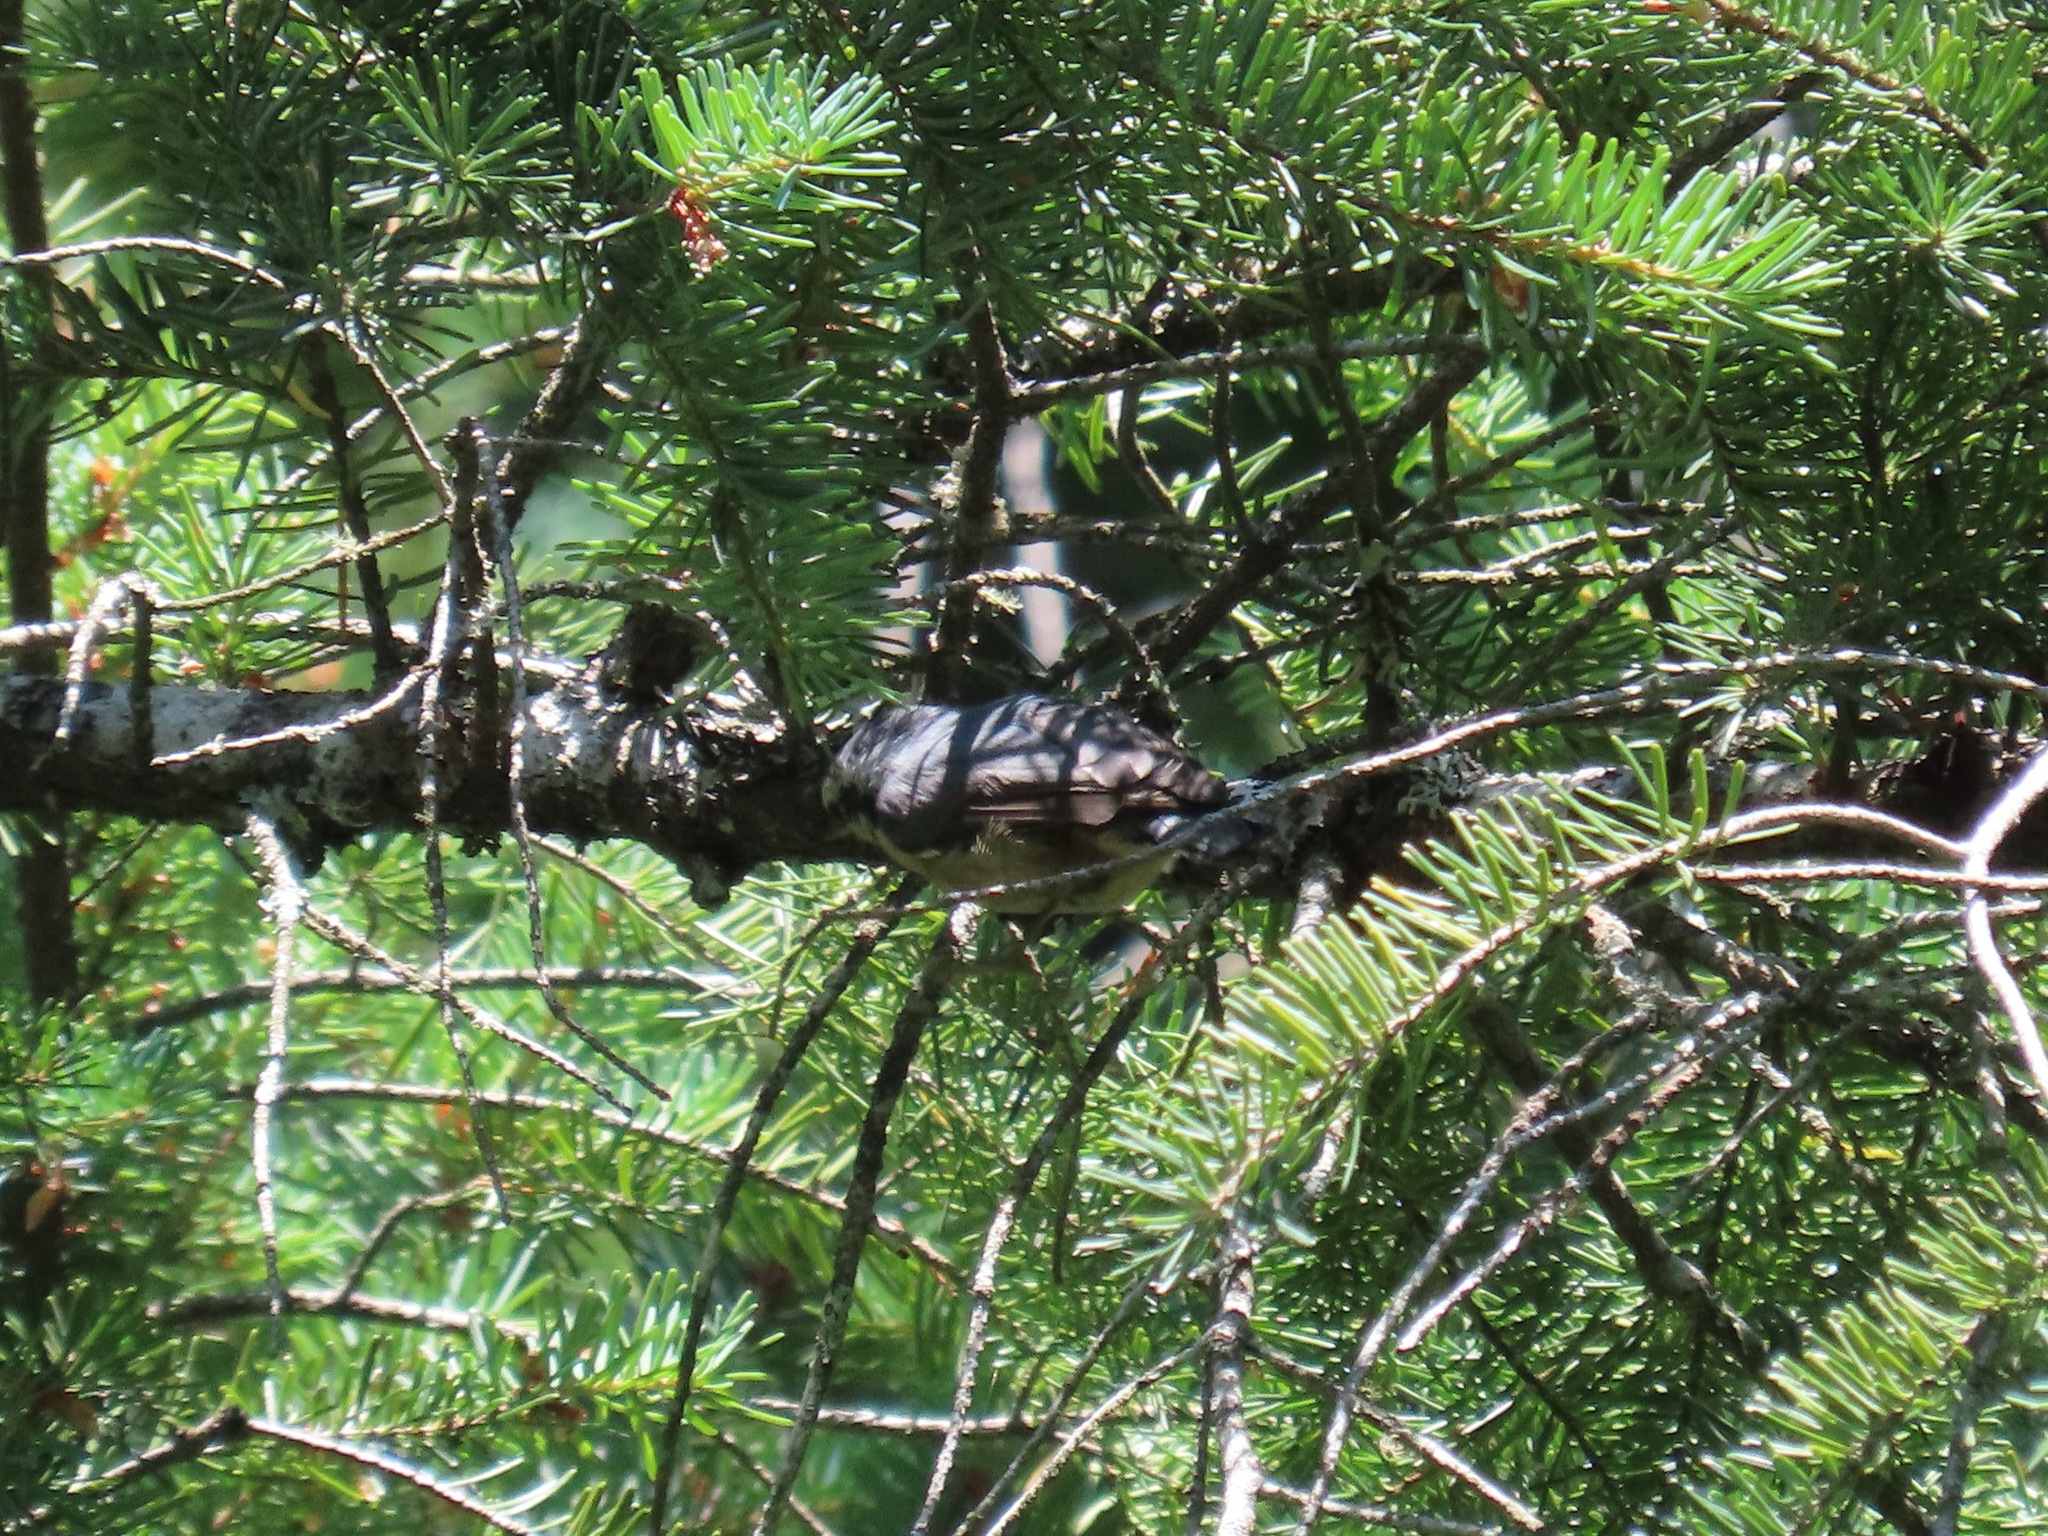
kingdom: Animalia
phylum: Chordata
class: Aves
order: Passeriformes
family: Sittidae
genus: Sitta
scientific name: Sitta canadensis
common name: Red-breasted nuthatch
